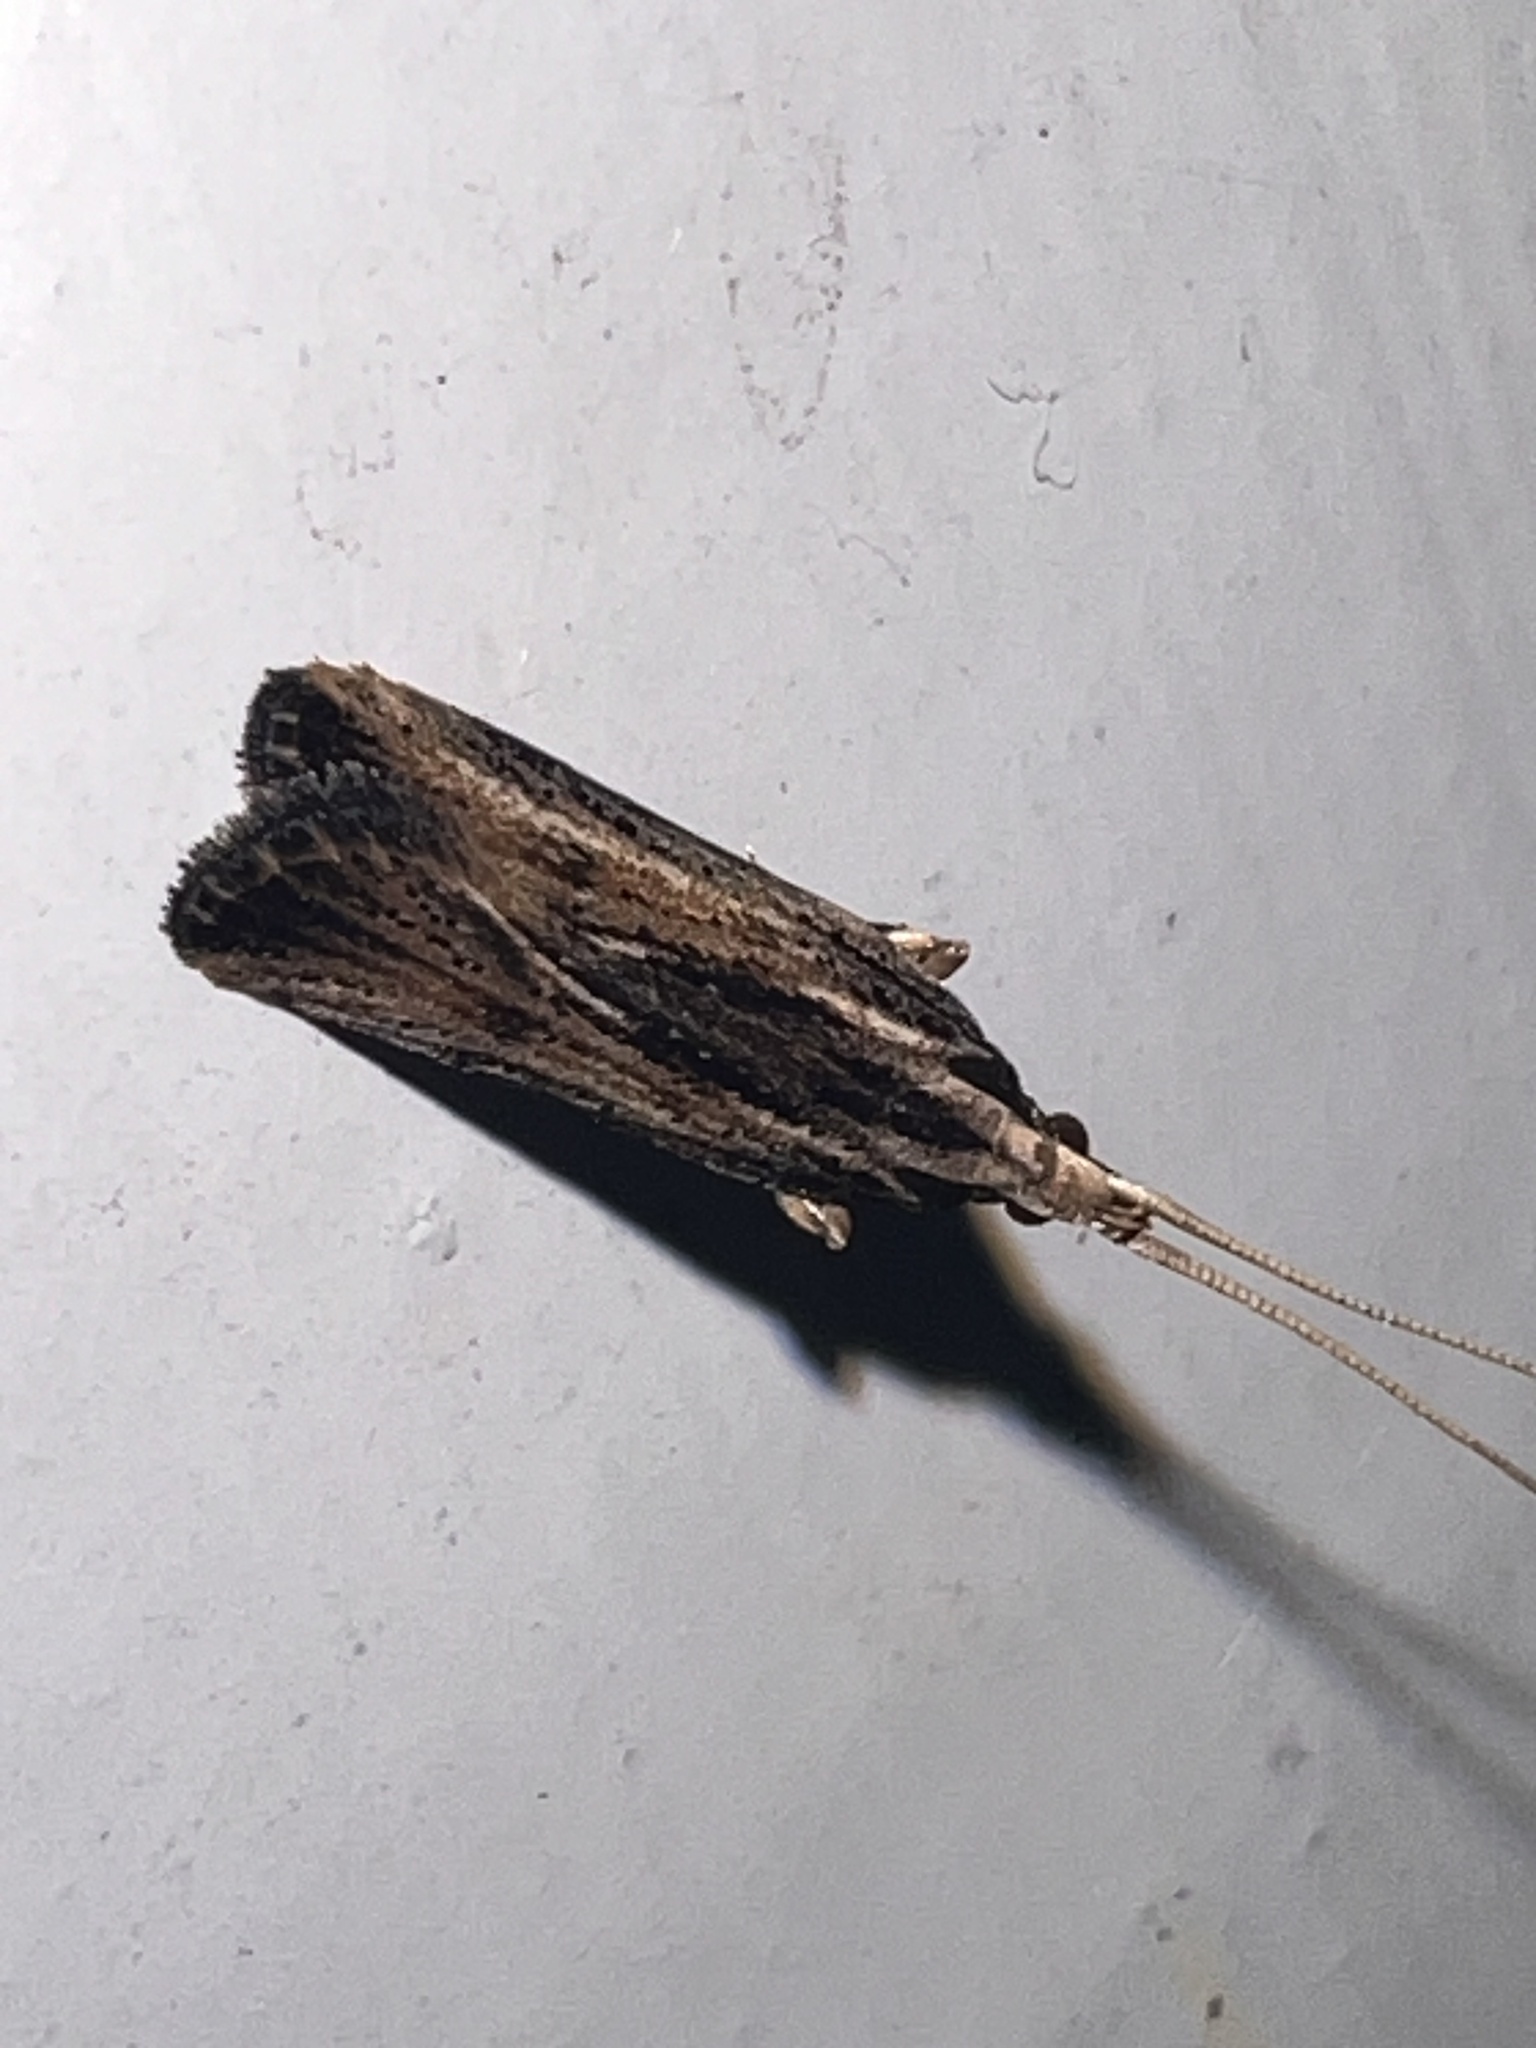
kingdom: Animalia
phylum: Arthropoda
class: Insecta
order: Lepidoptera
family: Lecithoceridae
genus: Sarisophora
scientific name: Sarisophora leucoscia
